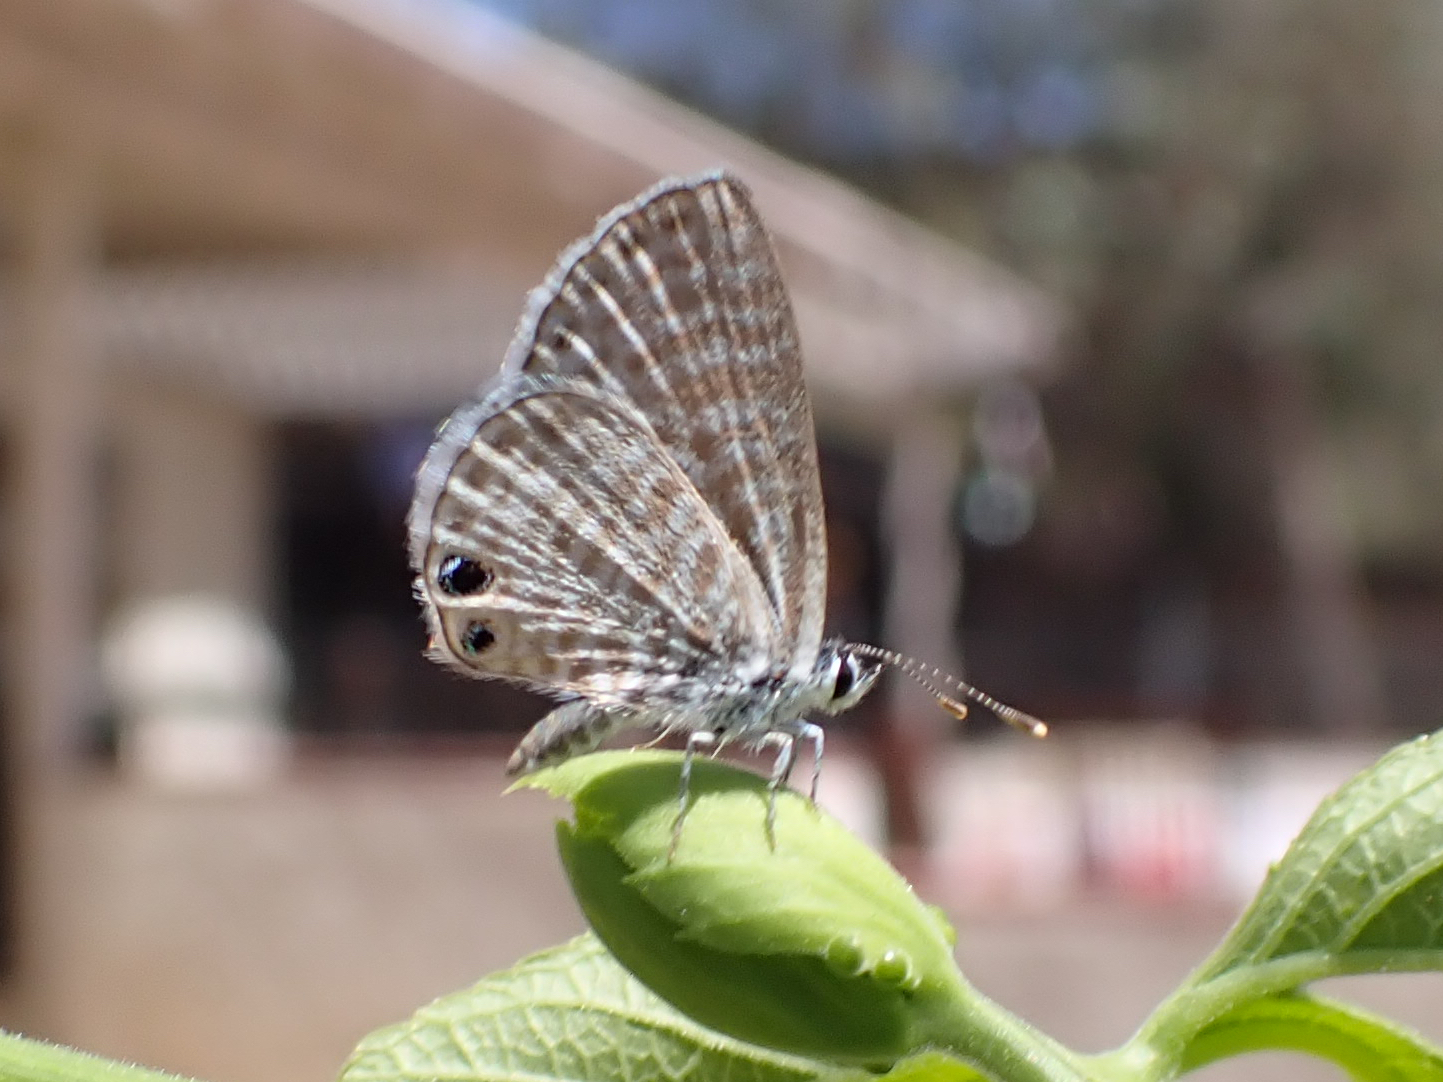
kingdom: Animalia
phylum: Arthropoda
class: Insecta
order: Lepidoptera
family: Lycaenidae
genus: Leptotes
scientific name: Leptotes marina
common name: Marine blue
